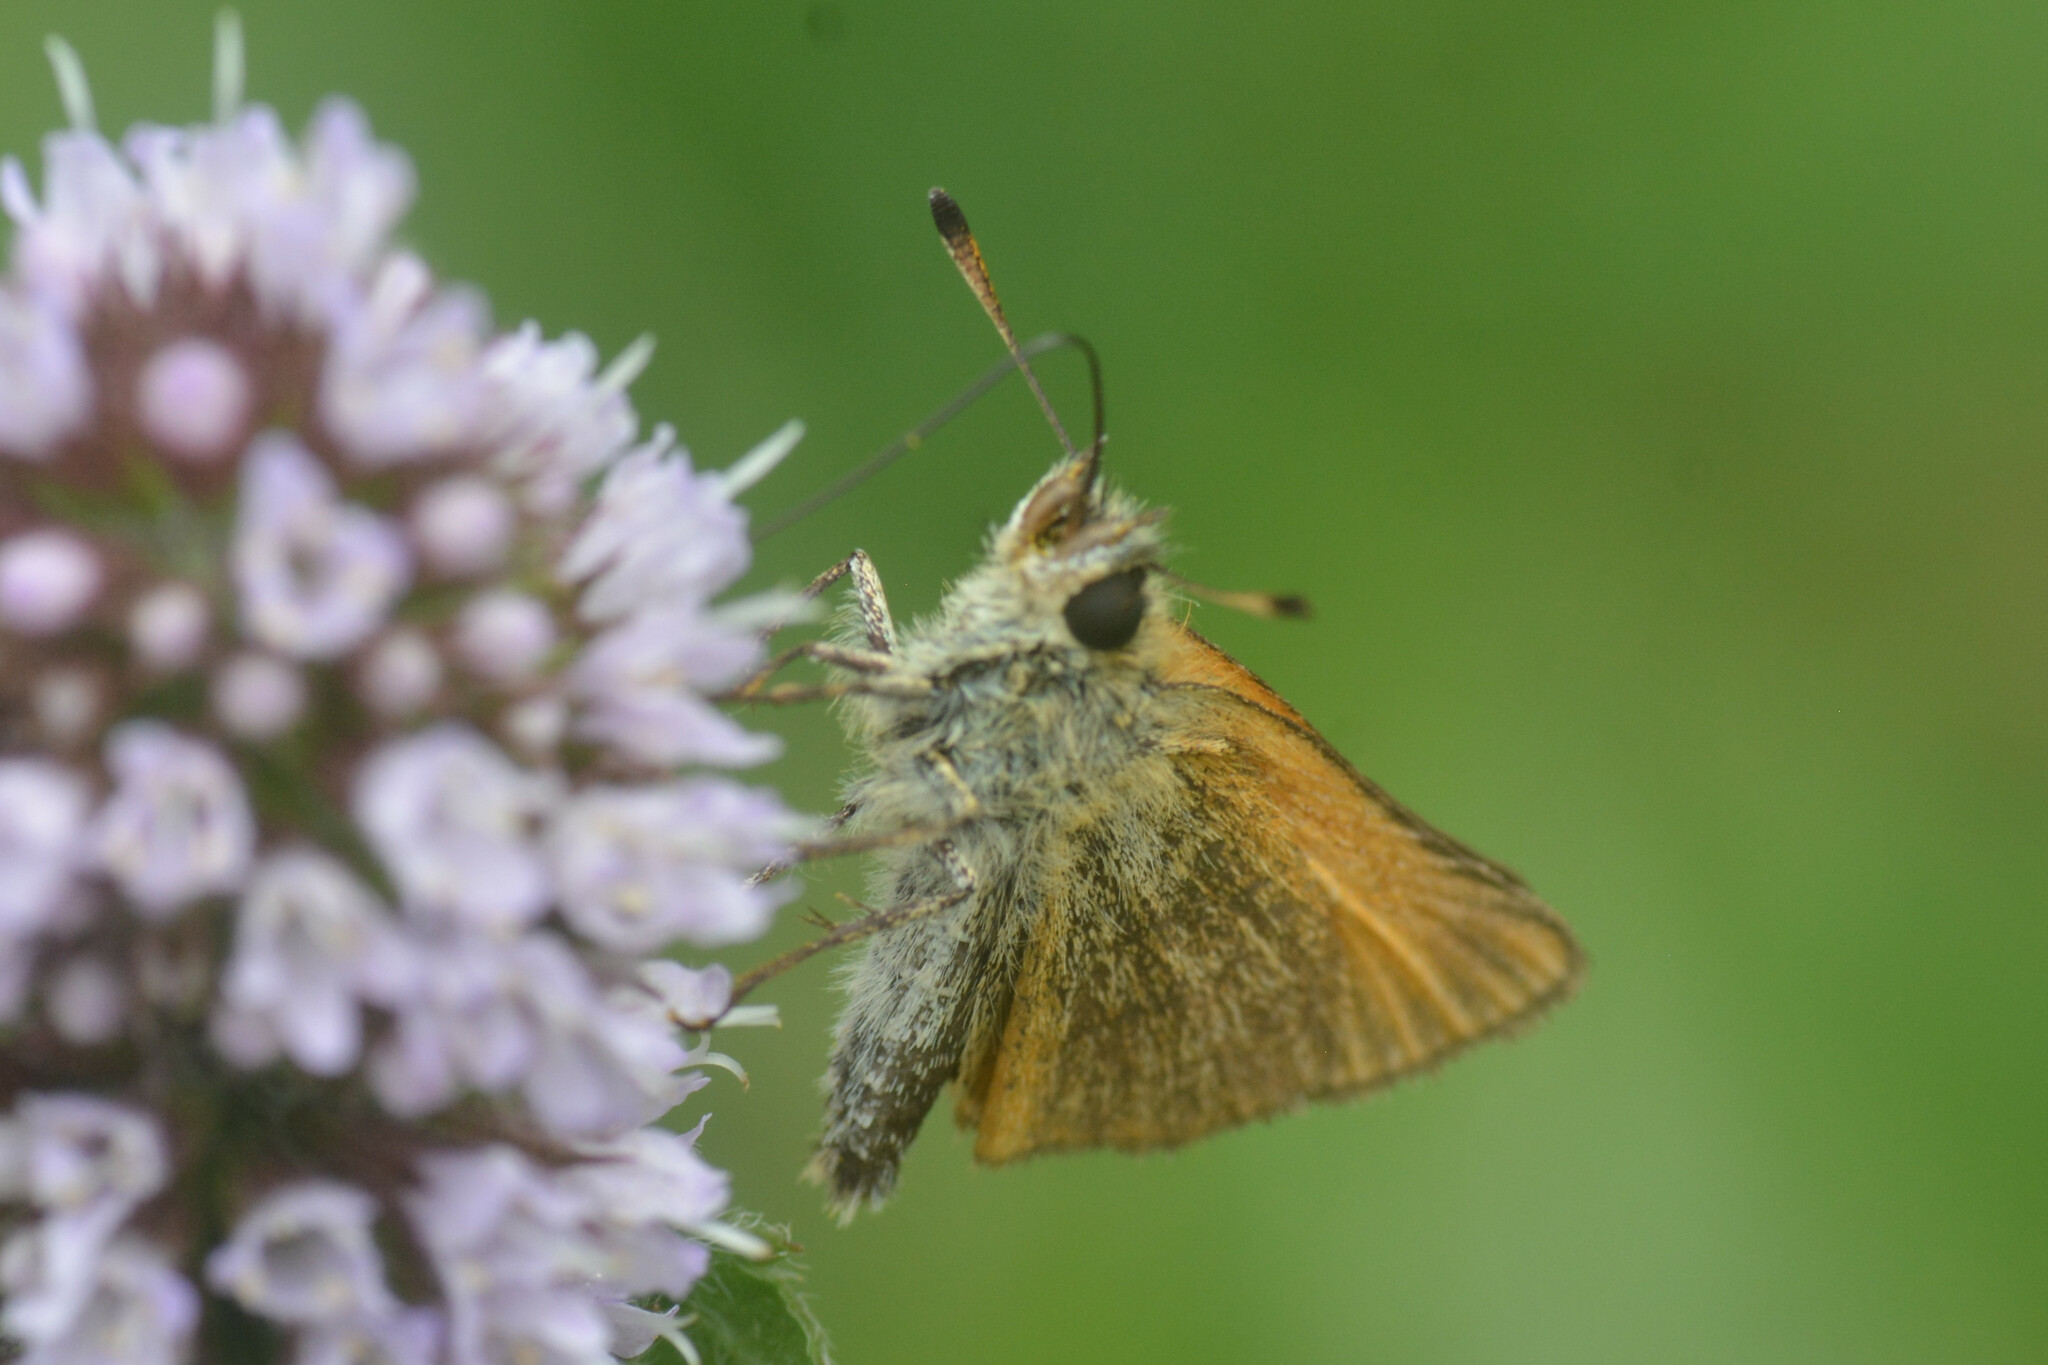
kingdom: Animalia
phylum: Arthropoda
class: Insecta
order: Lepidoptera
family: Hesperiidae
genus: Thymelicus
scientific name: Thymelicus lineola
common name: Essex skipper
